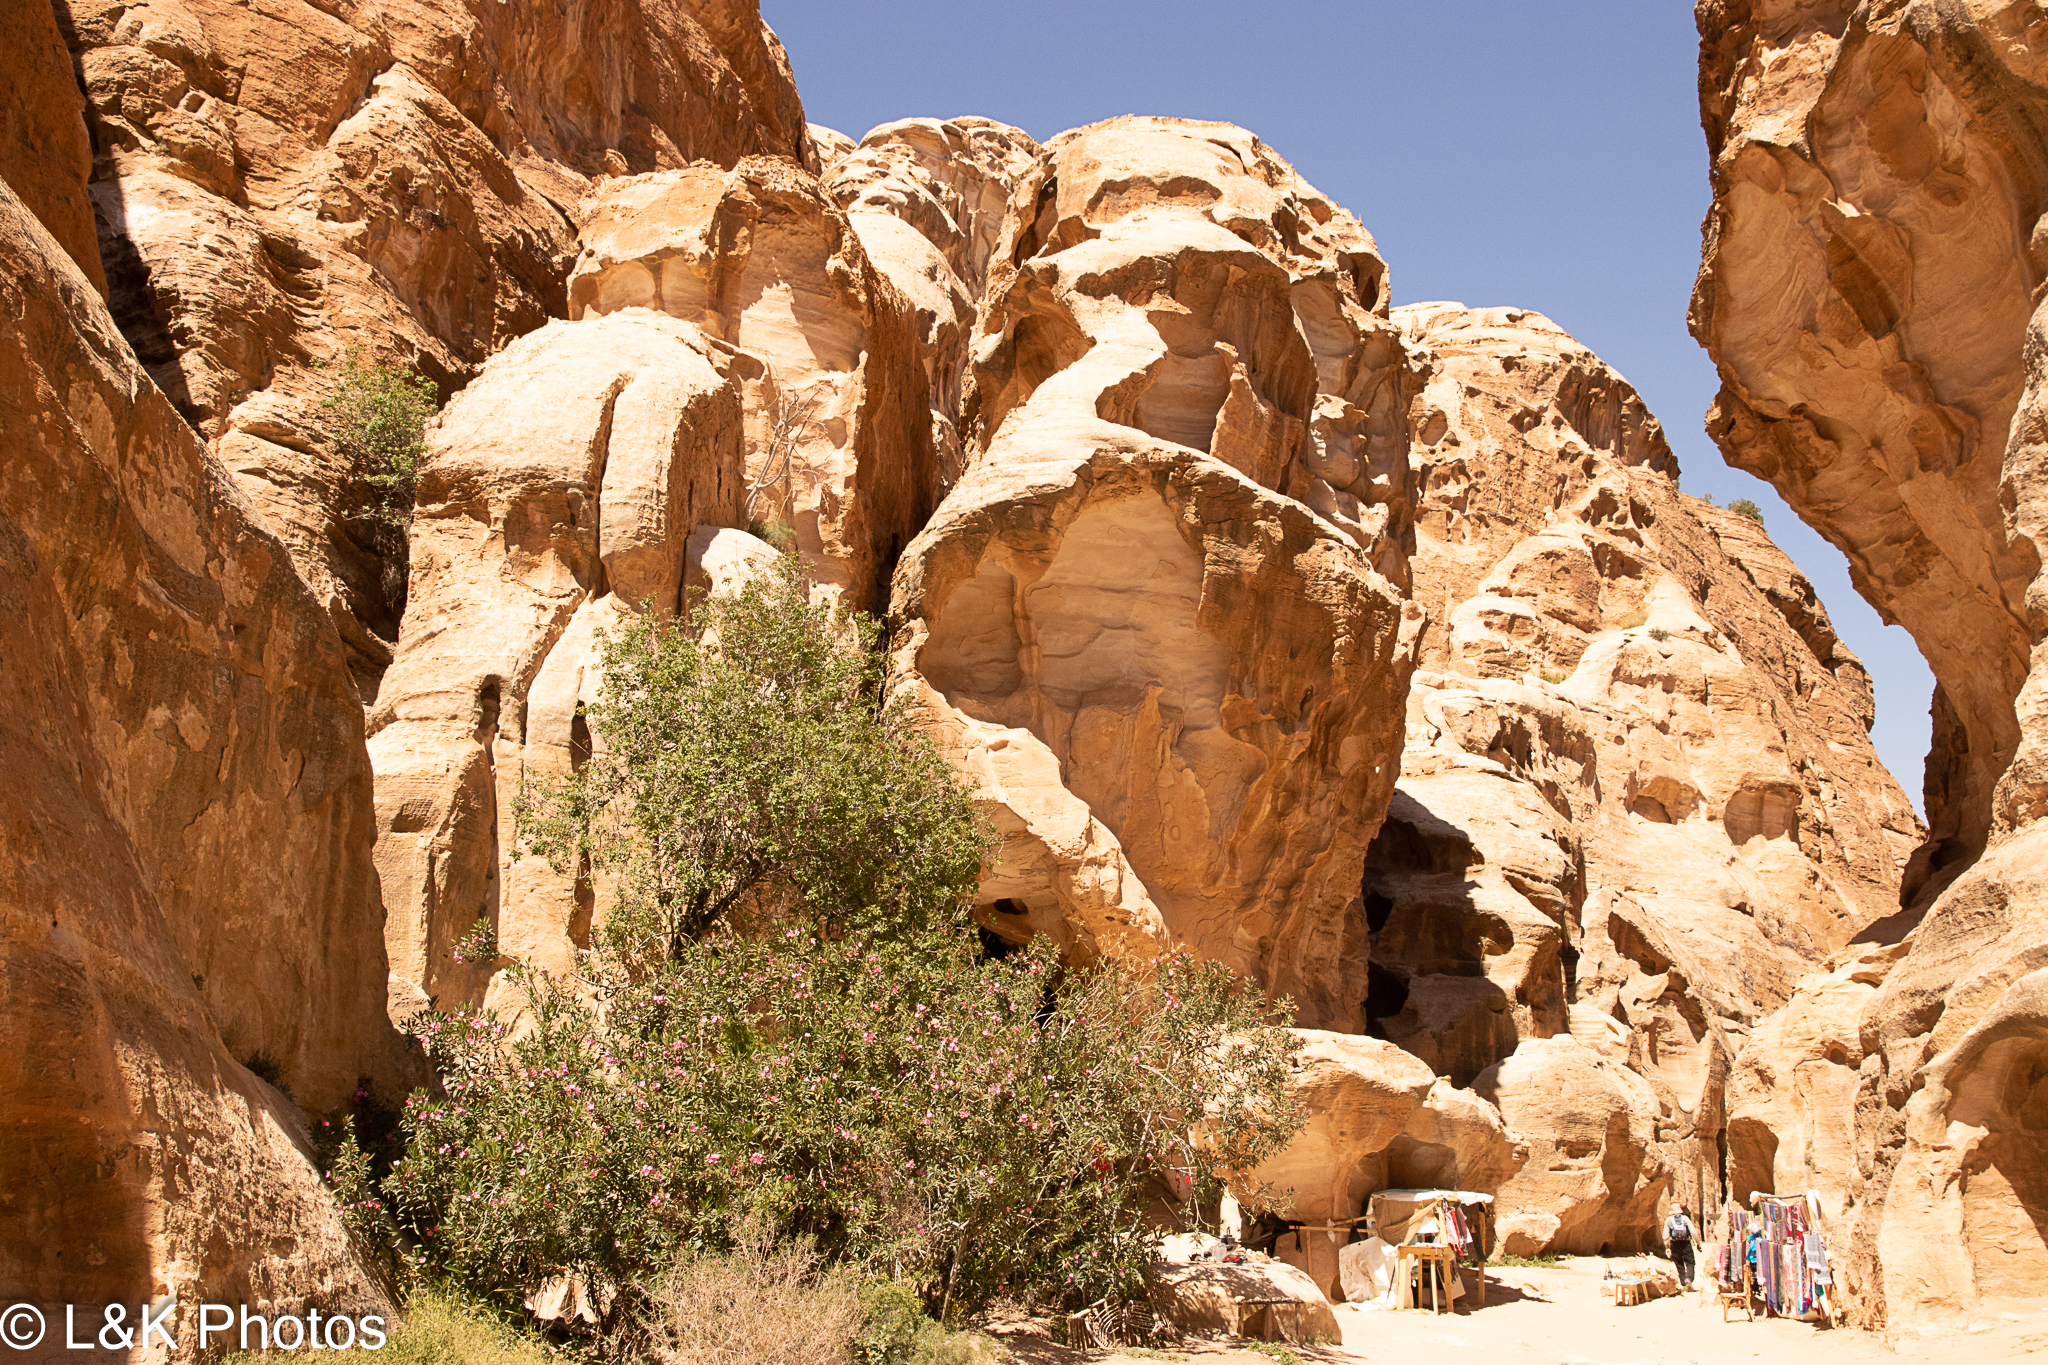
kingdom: Plantae
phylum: Tracheophyta
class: Magnoliopsida
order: Gentianales
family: Apocynaceae
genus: Nerium
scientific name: Nerium oleander
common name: Oleander
